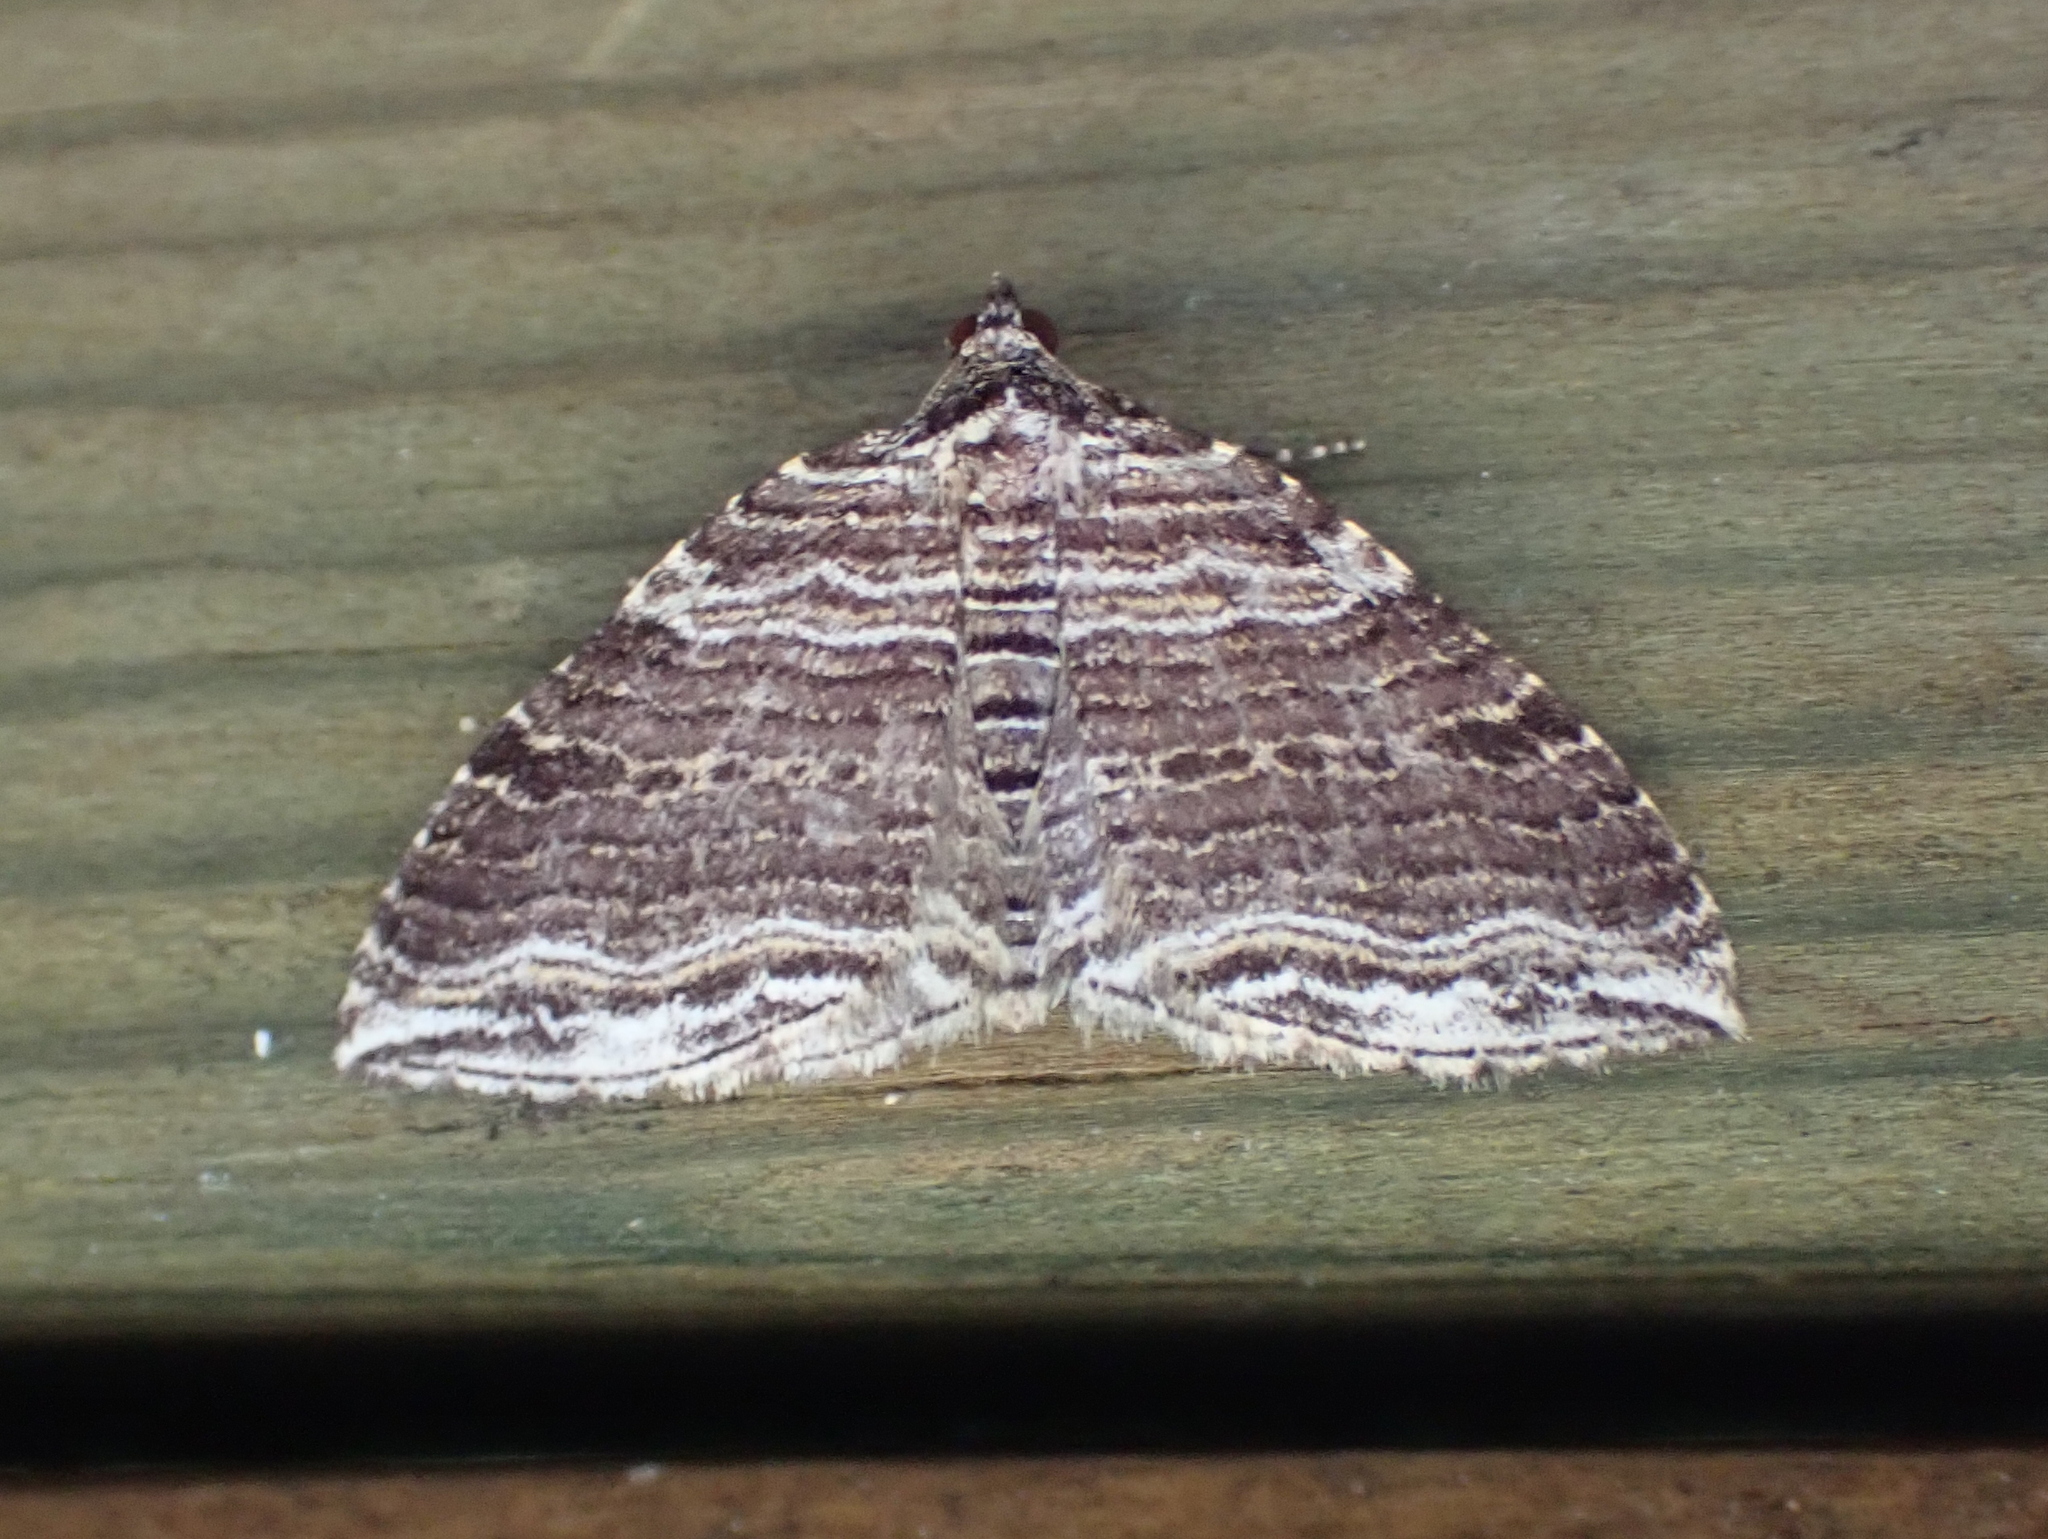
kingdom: Animalia
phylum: Arthropoda
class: Insecta
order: Lepidoptera
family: Geometridae
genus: Anticlea
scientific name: Anticlea multiferata
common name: Many-lined carpet
